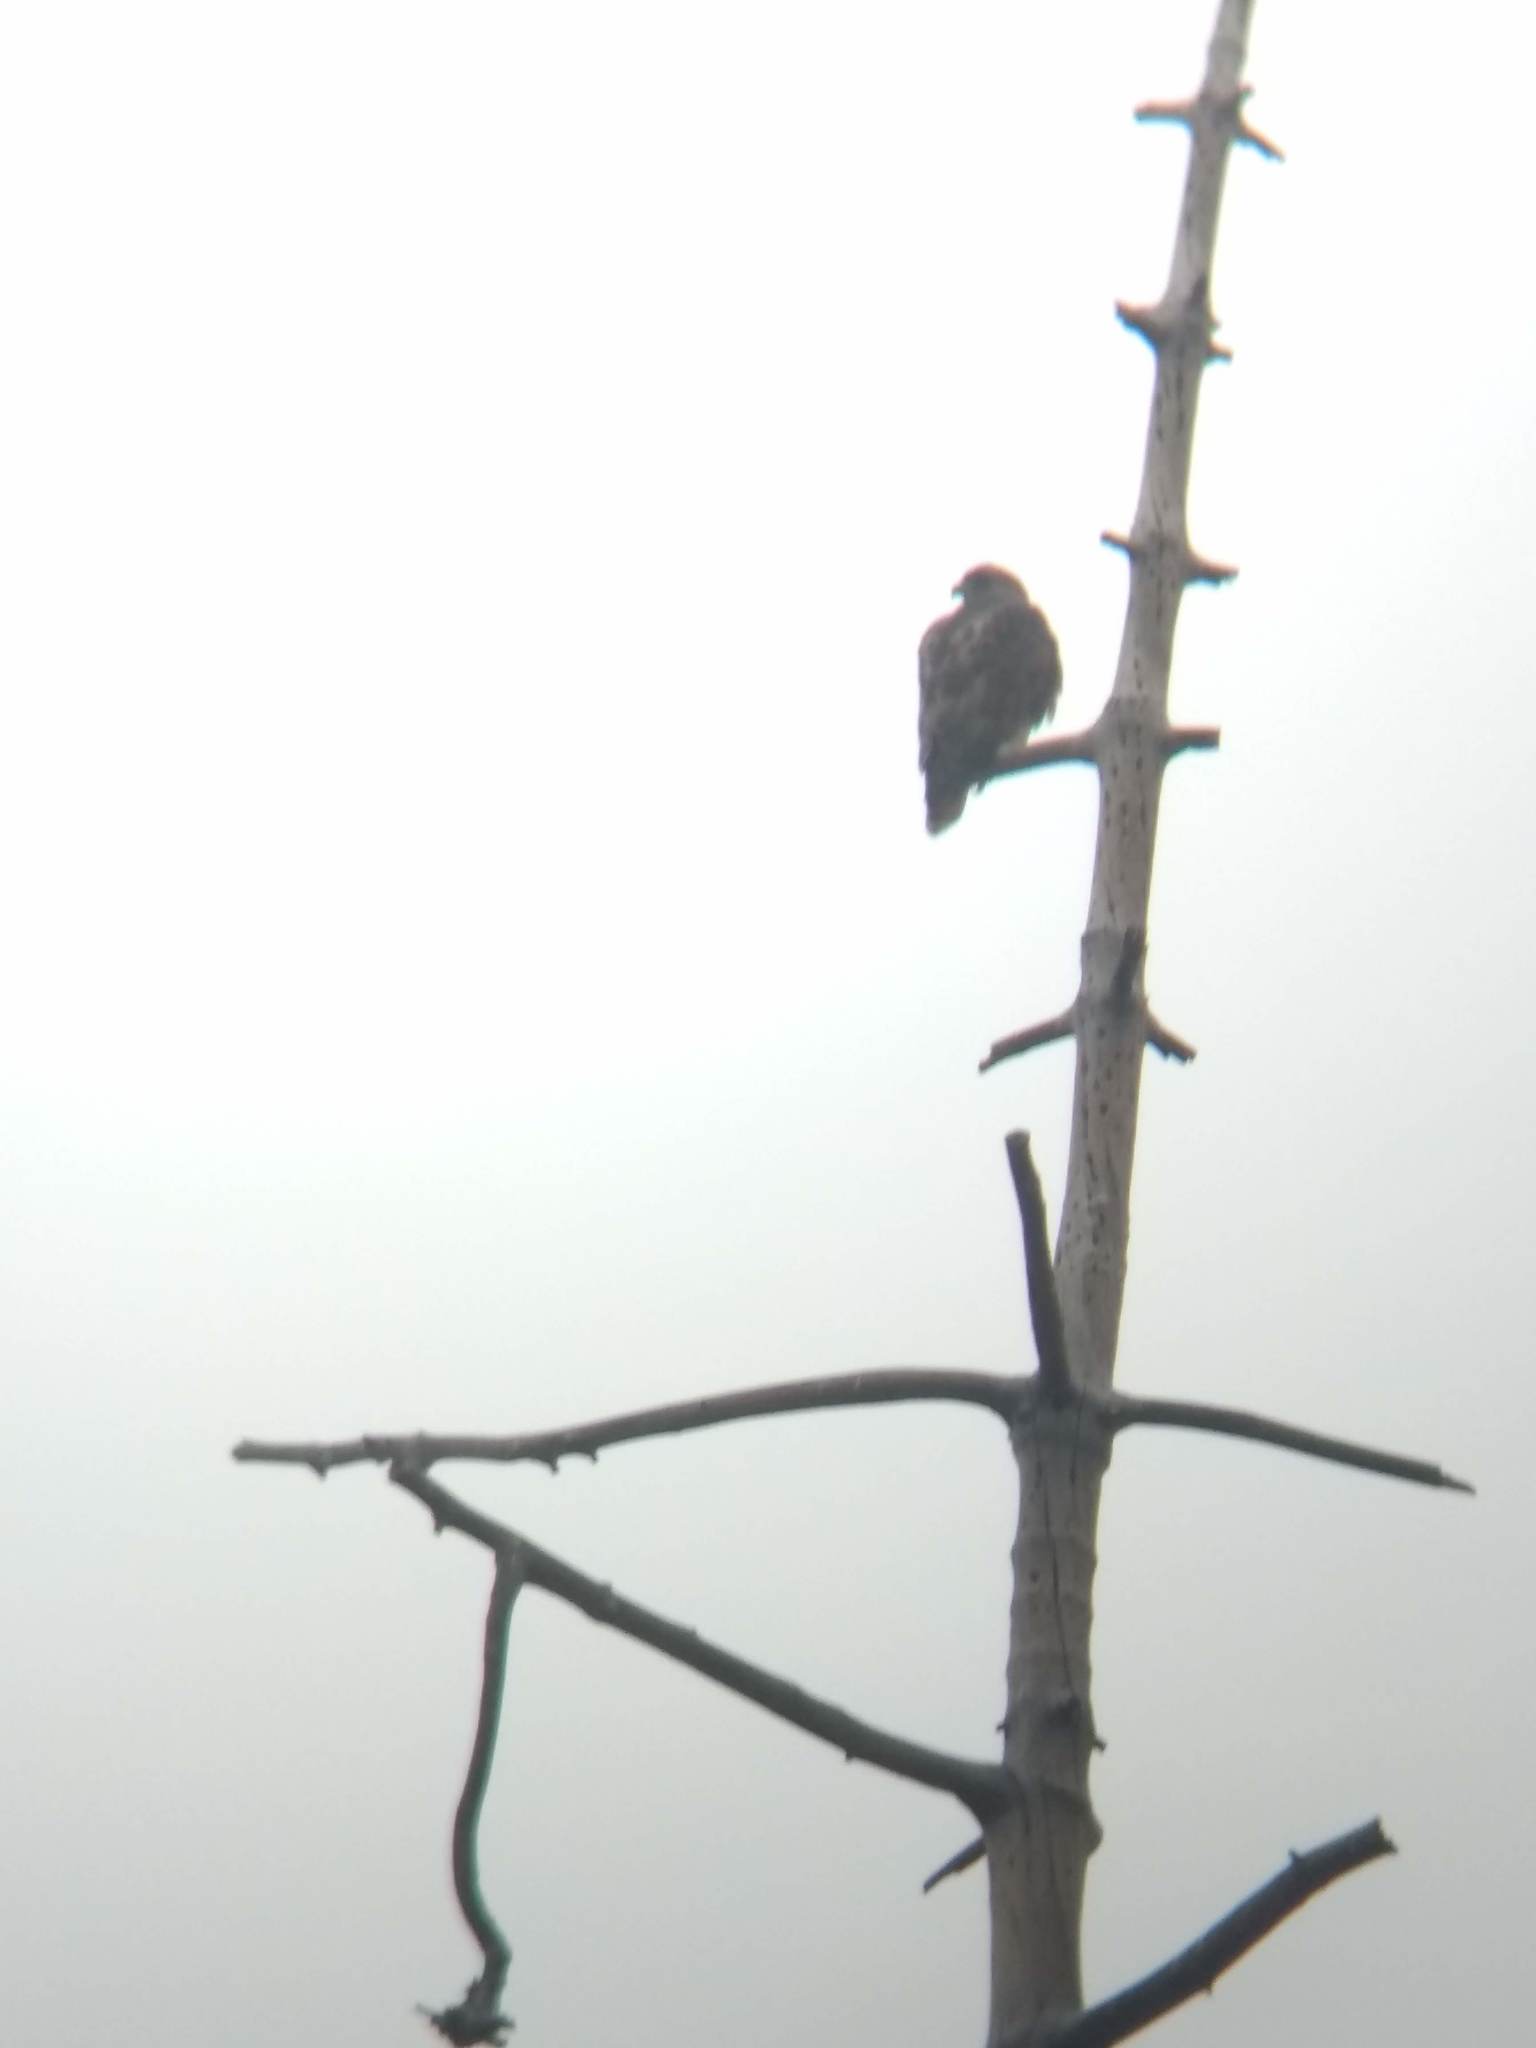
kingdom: Animalia
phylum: Chordata
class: Aves
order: Accipitriformes
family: Accipitridae
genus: Buteo
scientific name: Buteo jamaicensis
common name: Red-tailed hawk
